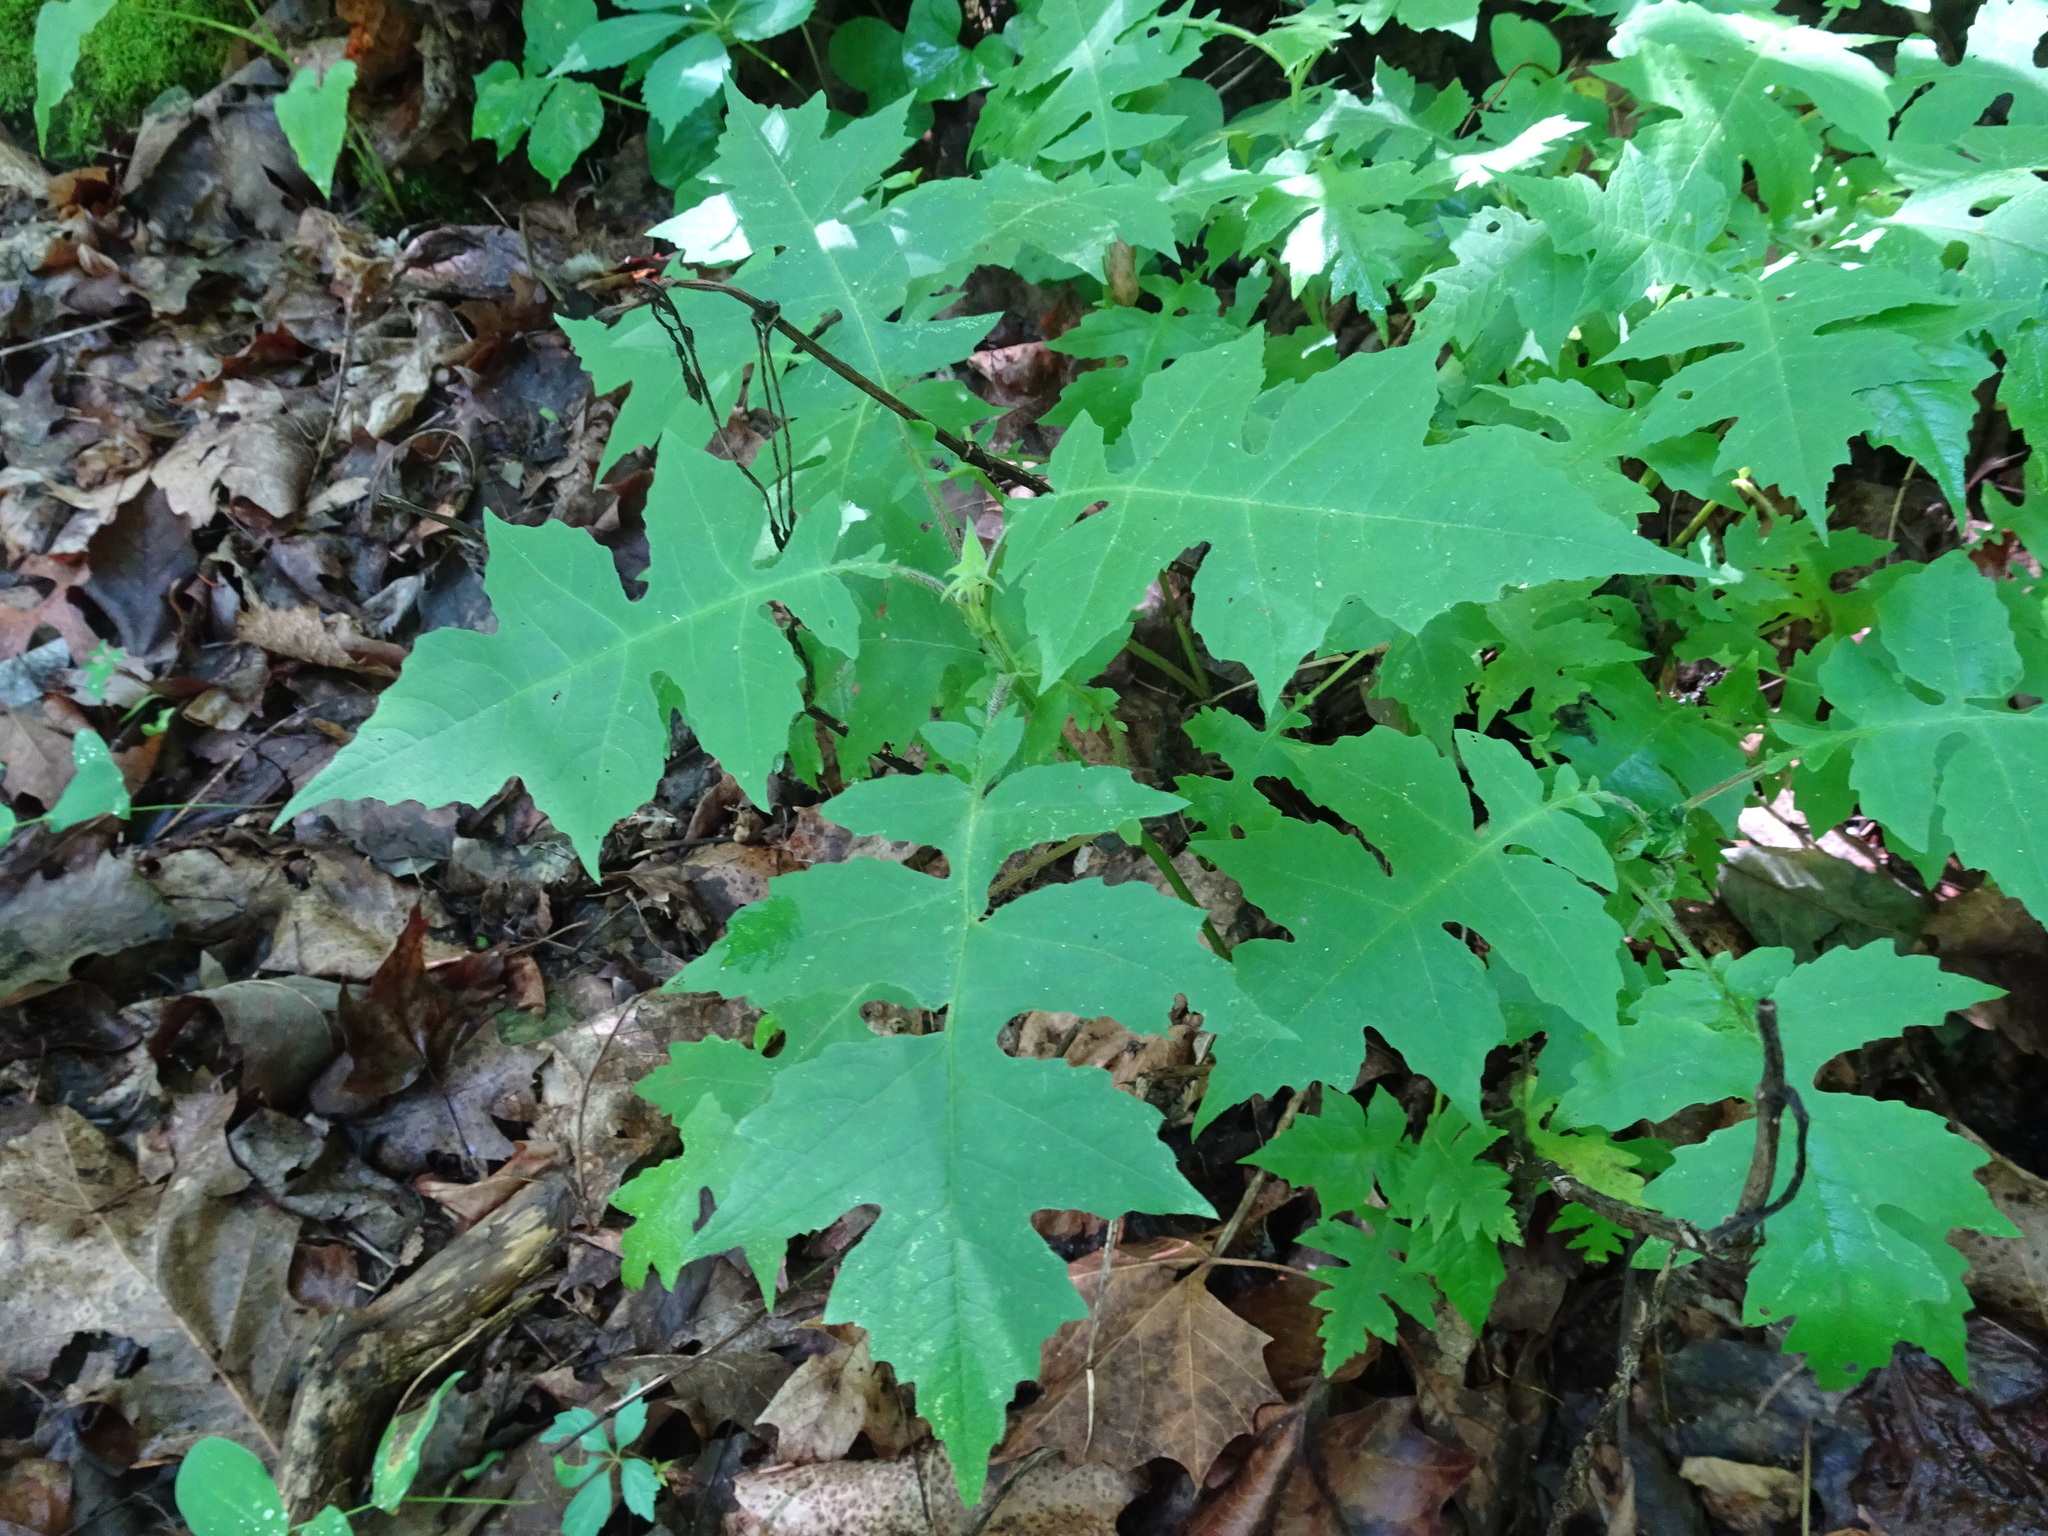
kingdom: Plantae
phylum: Tracheophyta
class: Magnoliopsida
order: Asterales
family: Asteraceae
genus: Polymnia
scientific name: Polymnia canadensis
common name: Pale-flowered leafcup
